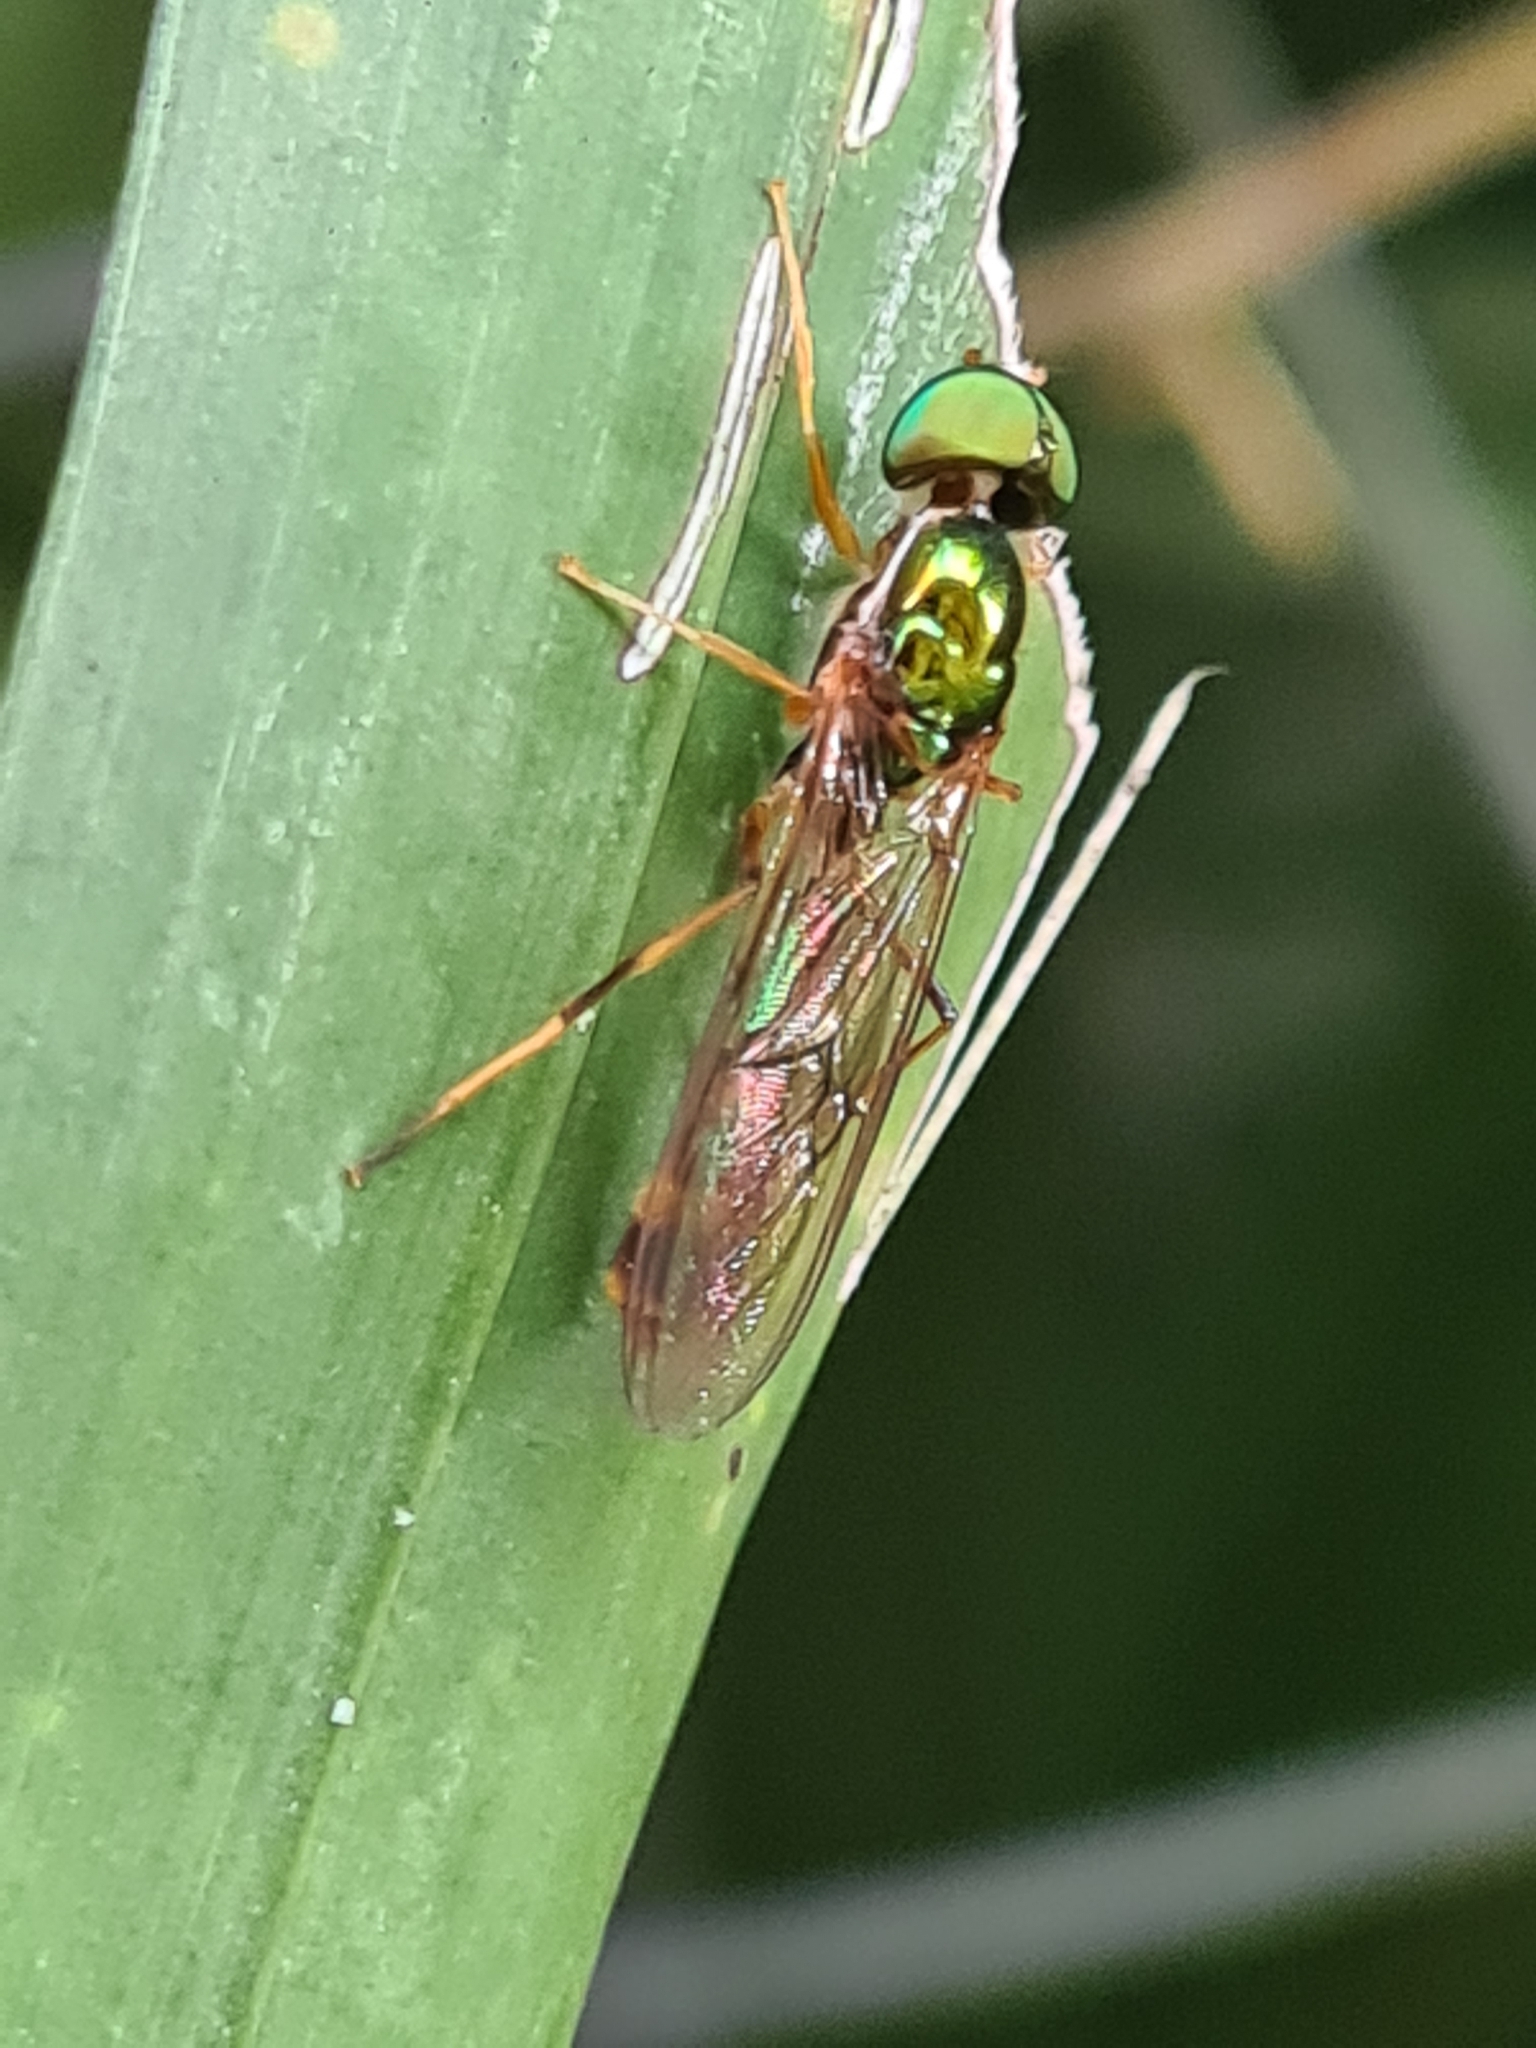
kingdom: Animalia
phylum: Arthropoda
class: Insecta
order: Diptera
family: Stratiomyidae
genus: Sargus
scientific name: Sargus fasciatus
